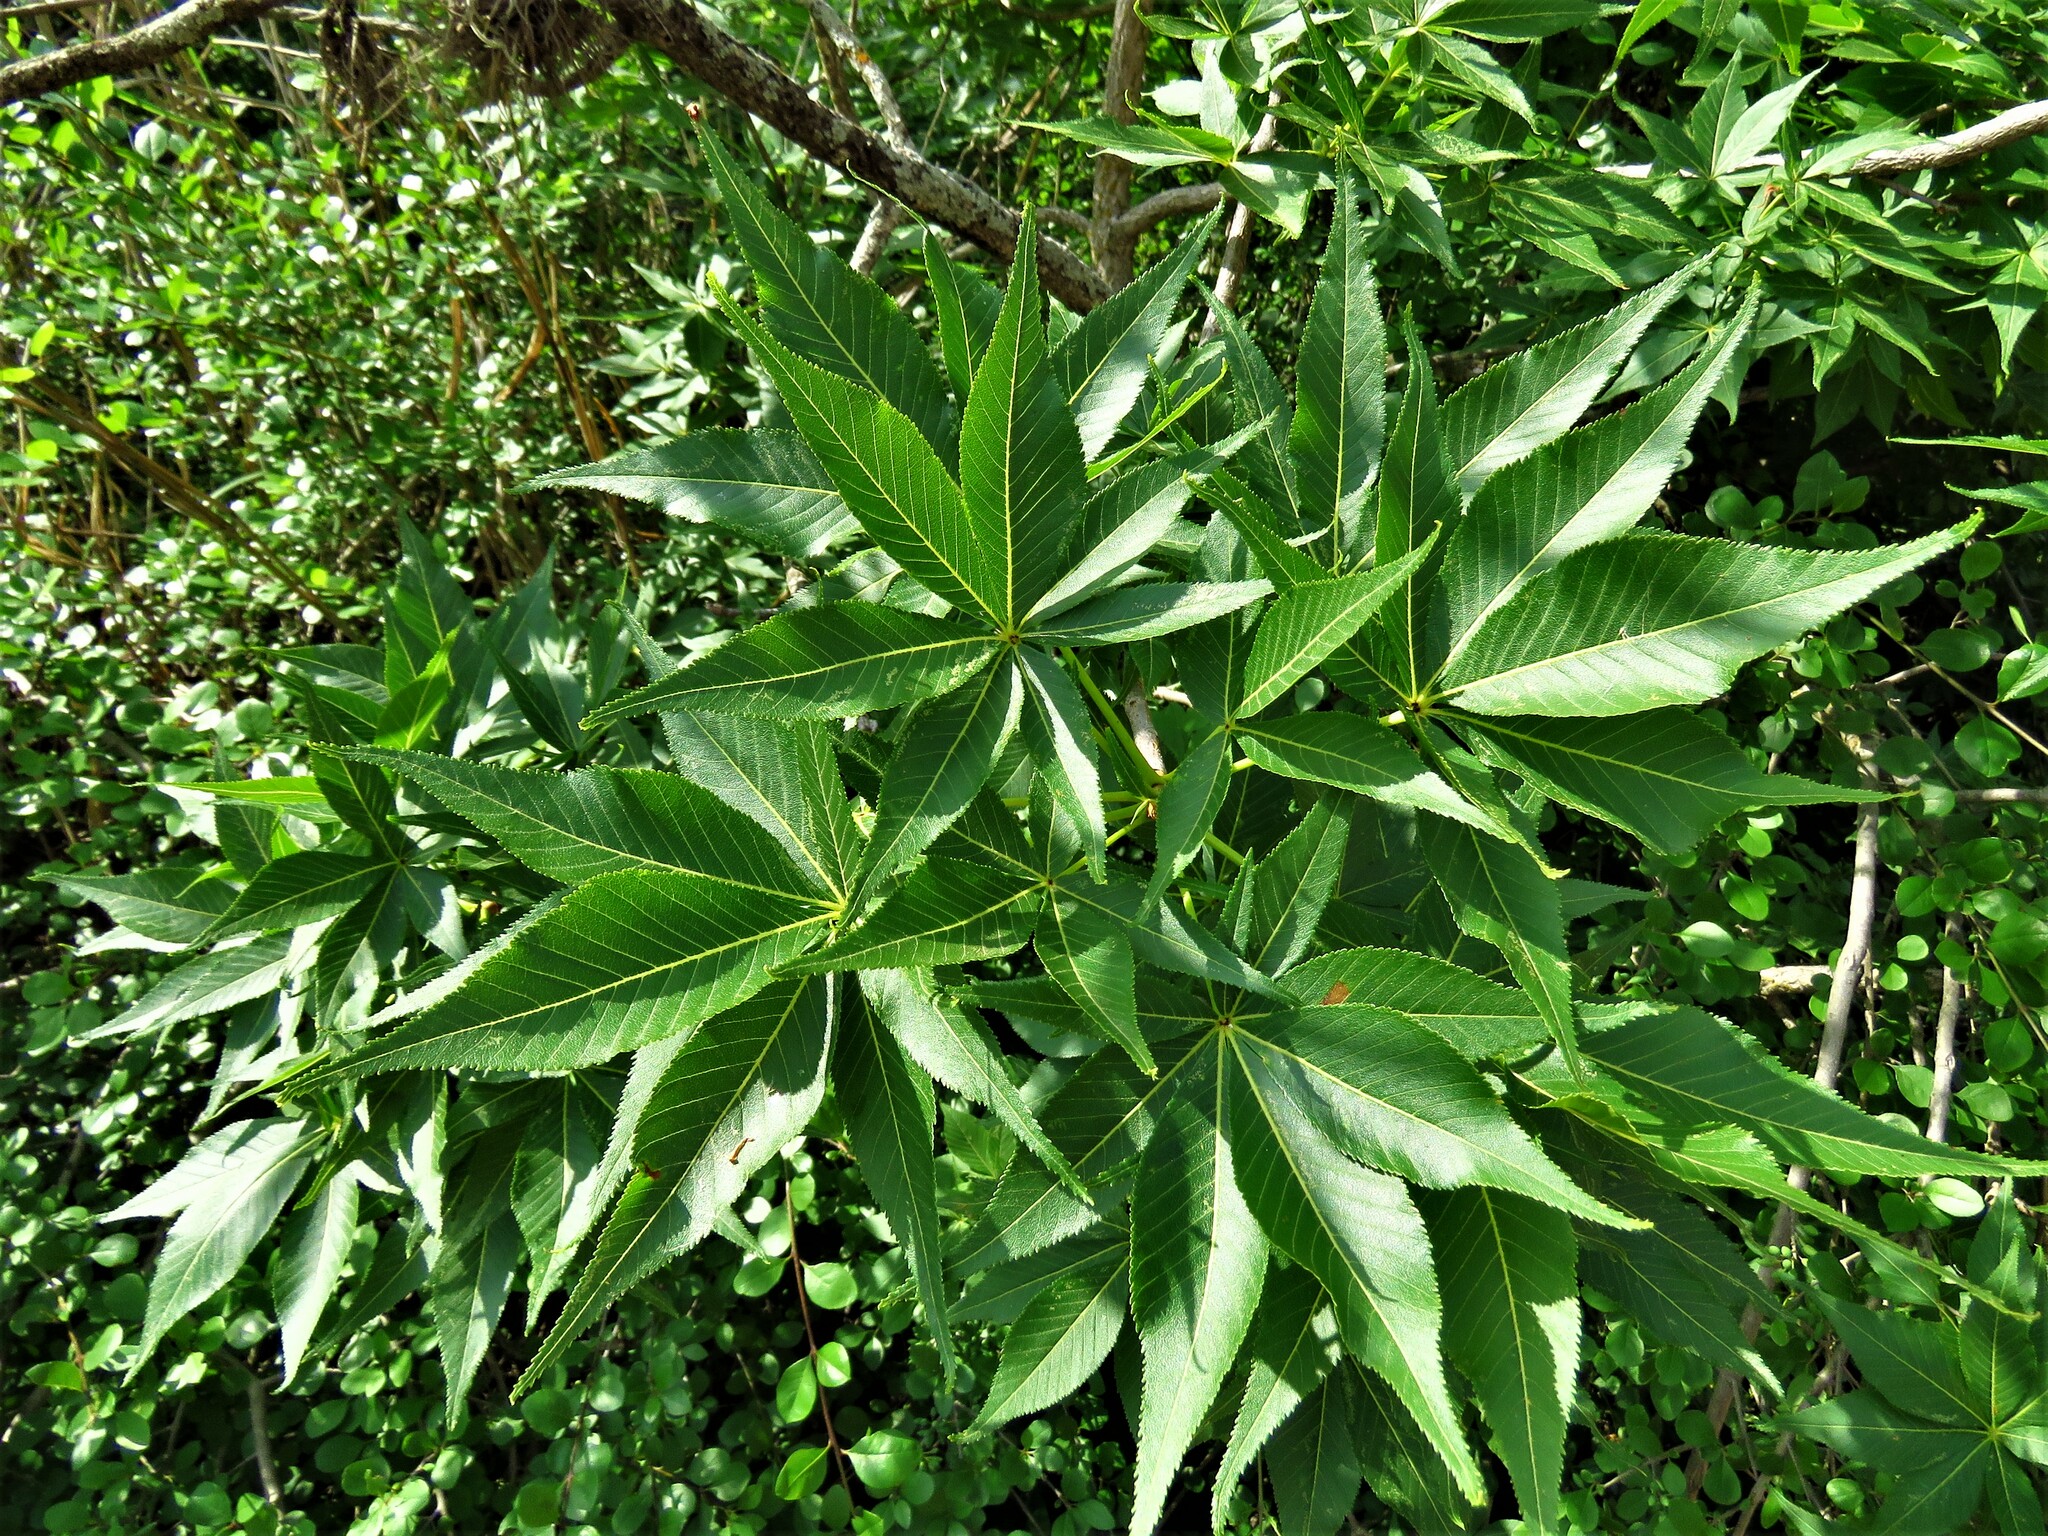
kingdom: Plantae
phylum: Tracheophyta
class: Magnoliopsida
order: Sapindales
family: Sapindaceae
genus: Aesculus
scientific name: Aesculus glabra
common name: Ohio buckeye
